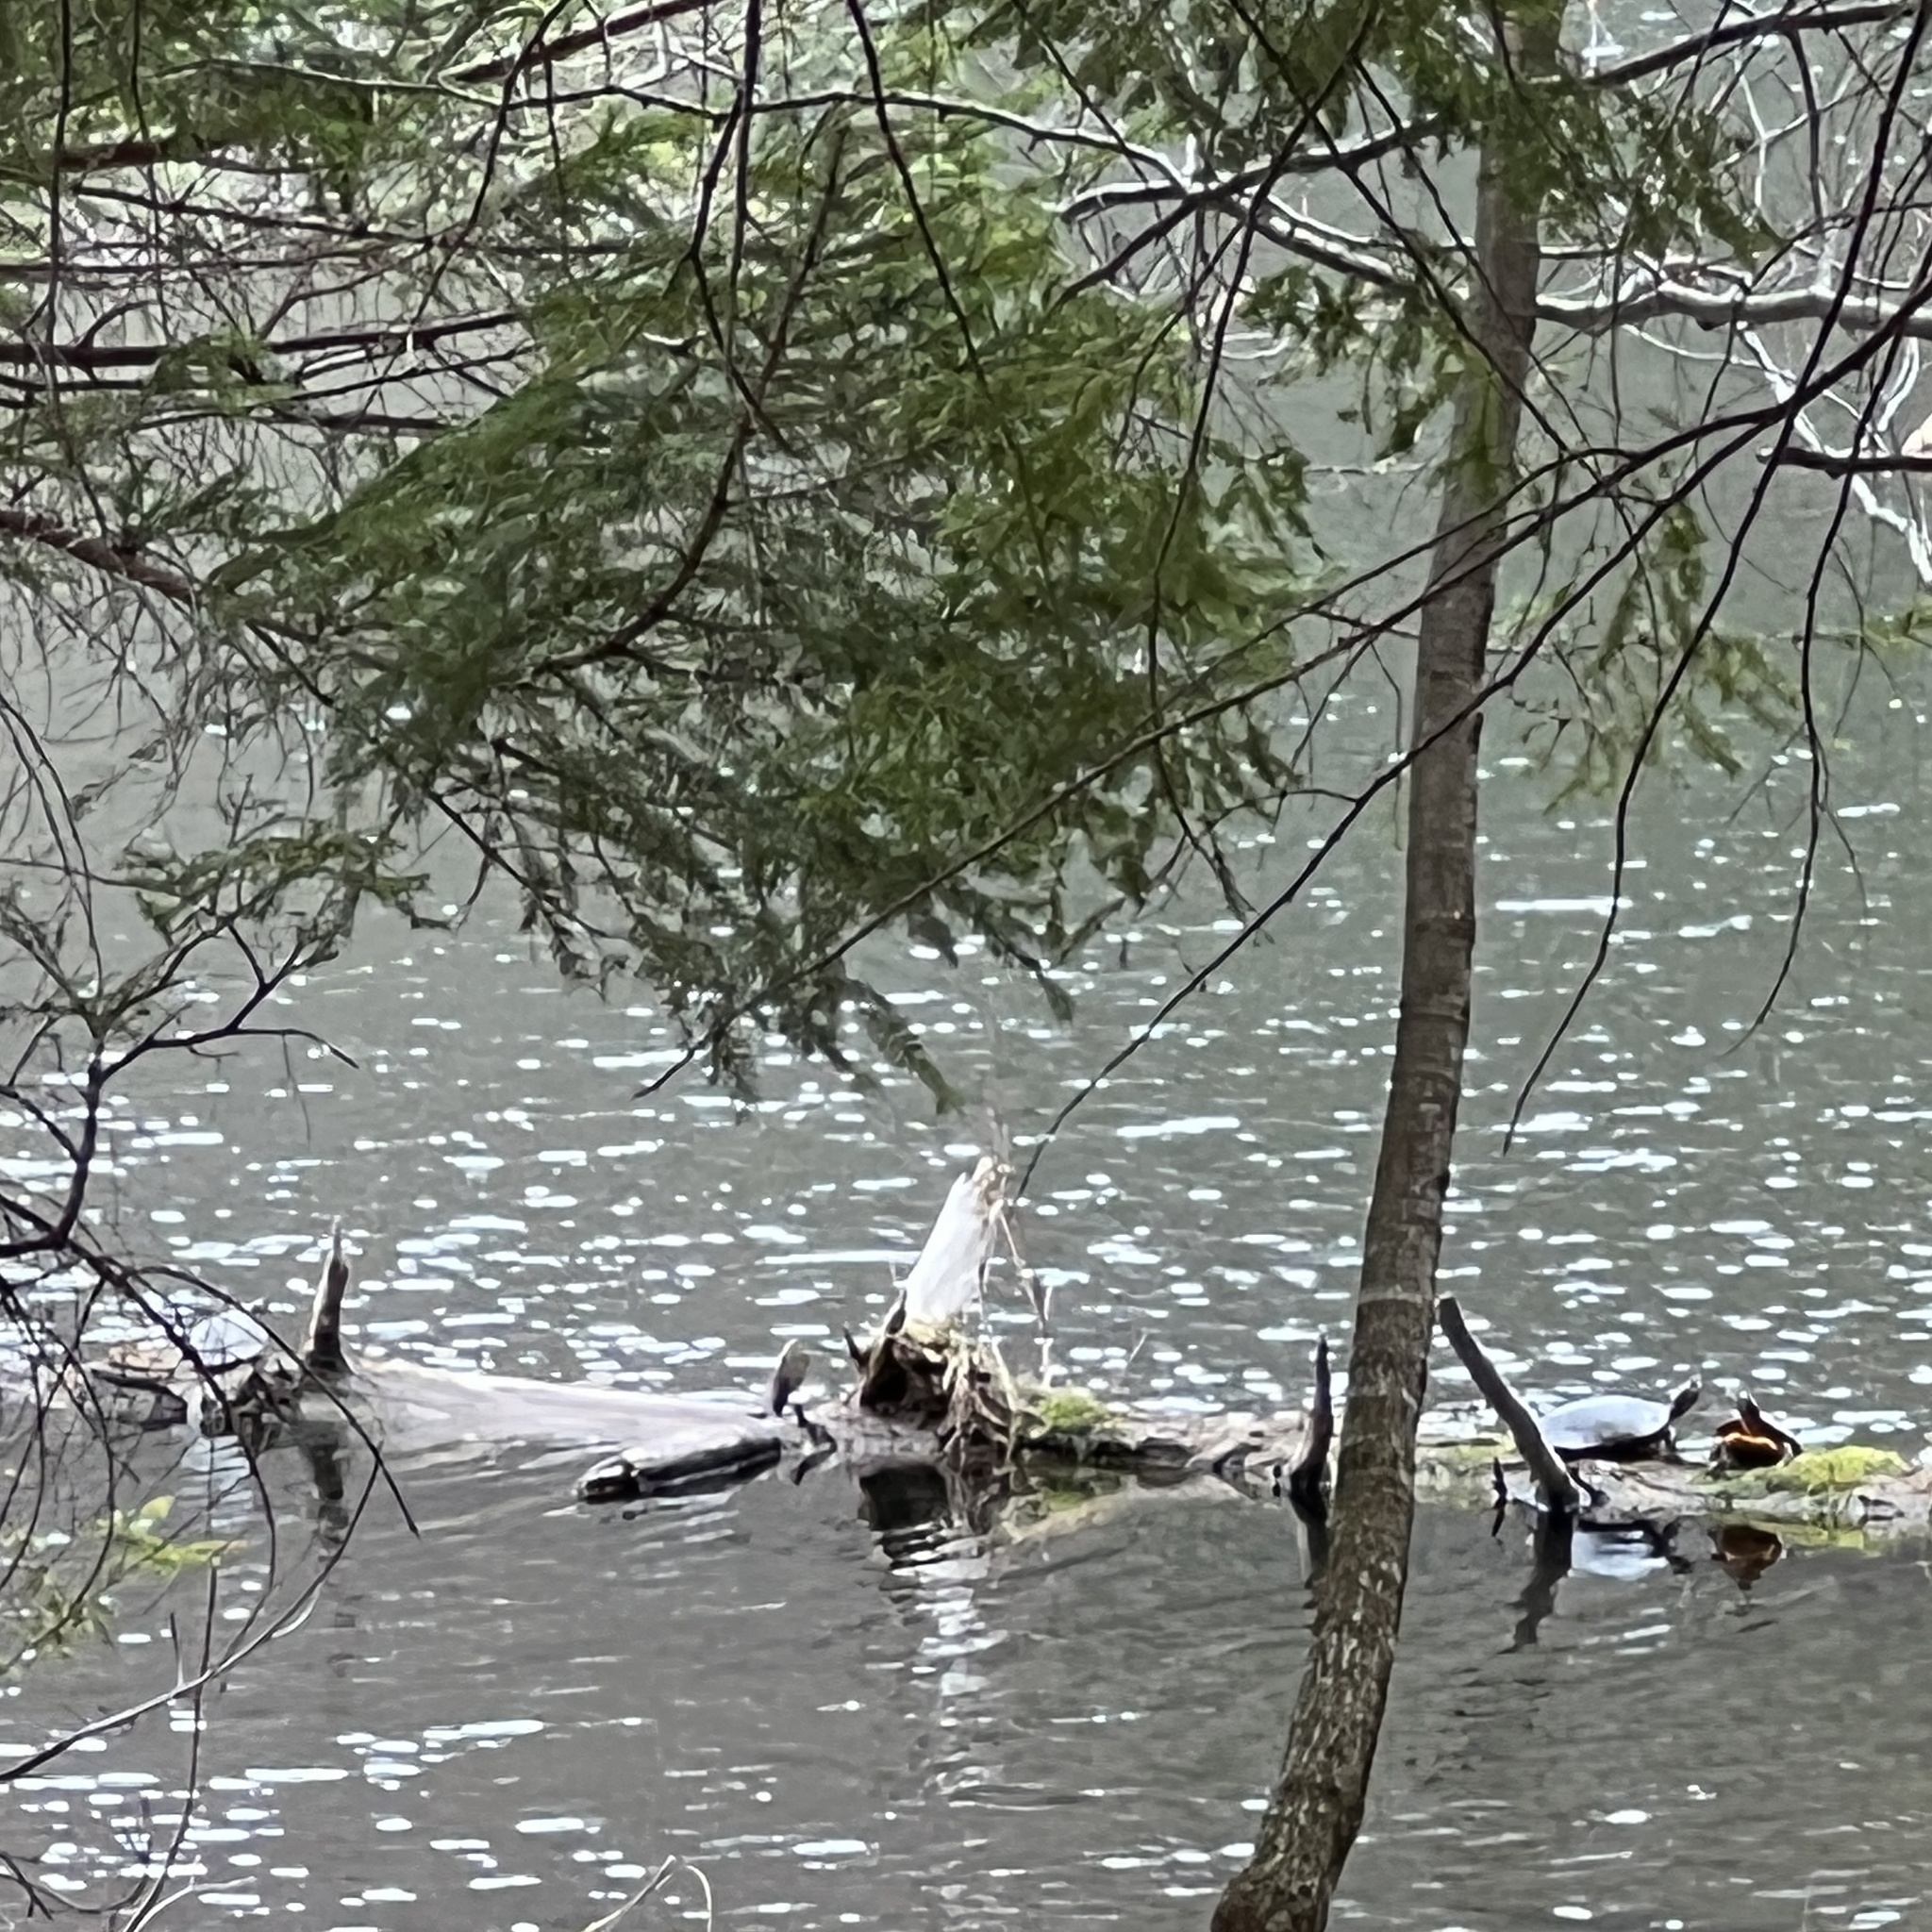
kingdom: Animalia
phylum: Chordata
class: Testudines
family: Emydidae
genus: Chrysemys
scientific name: Chrysemys picta
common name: Painted turtle
